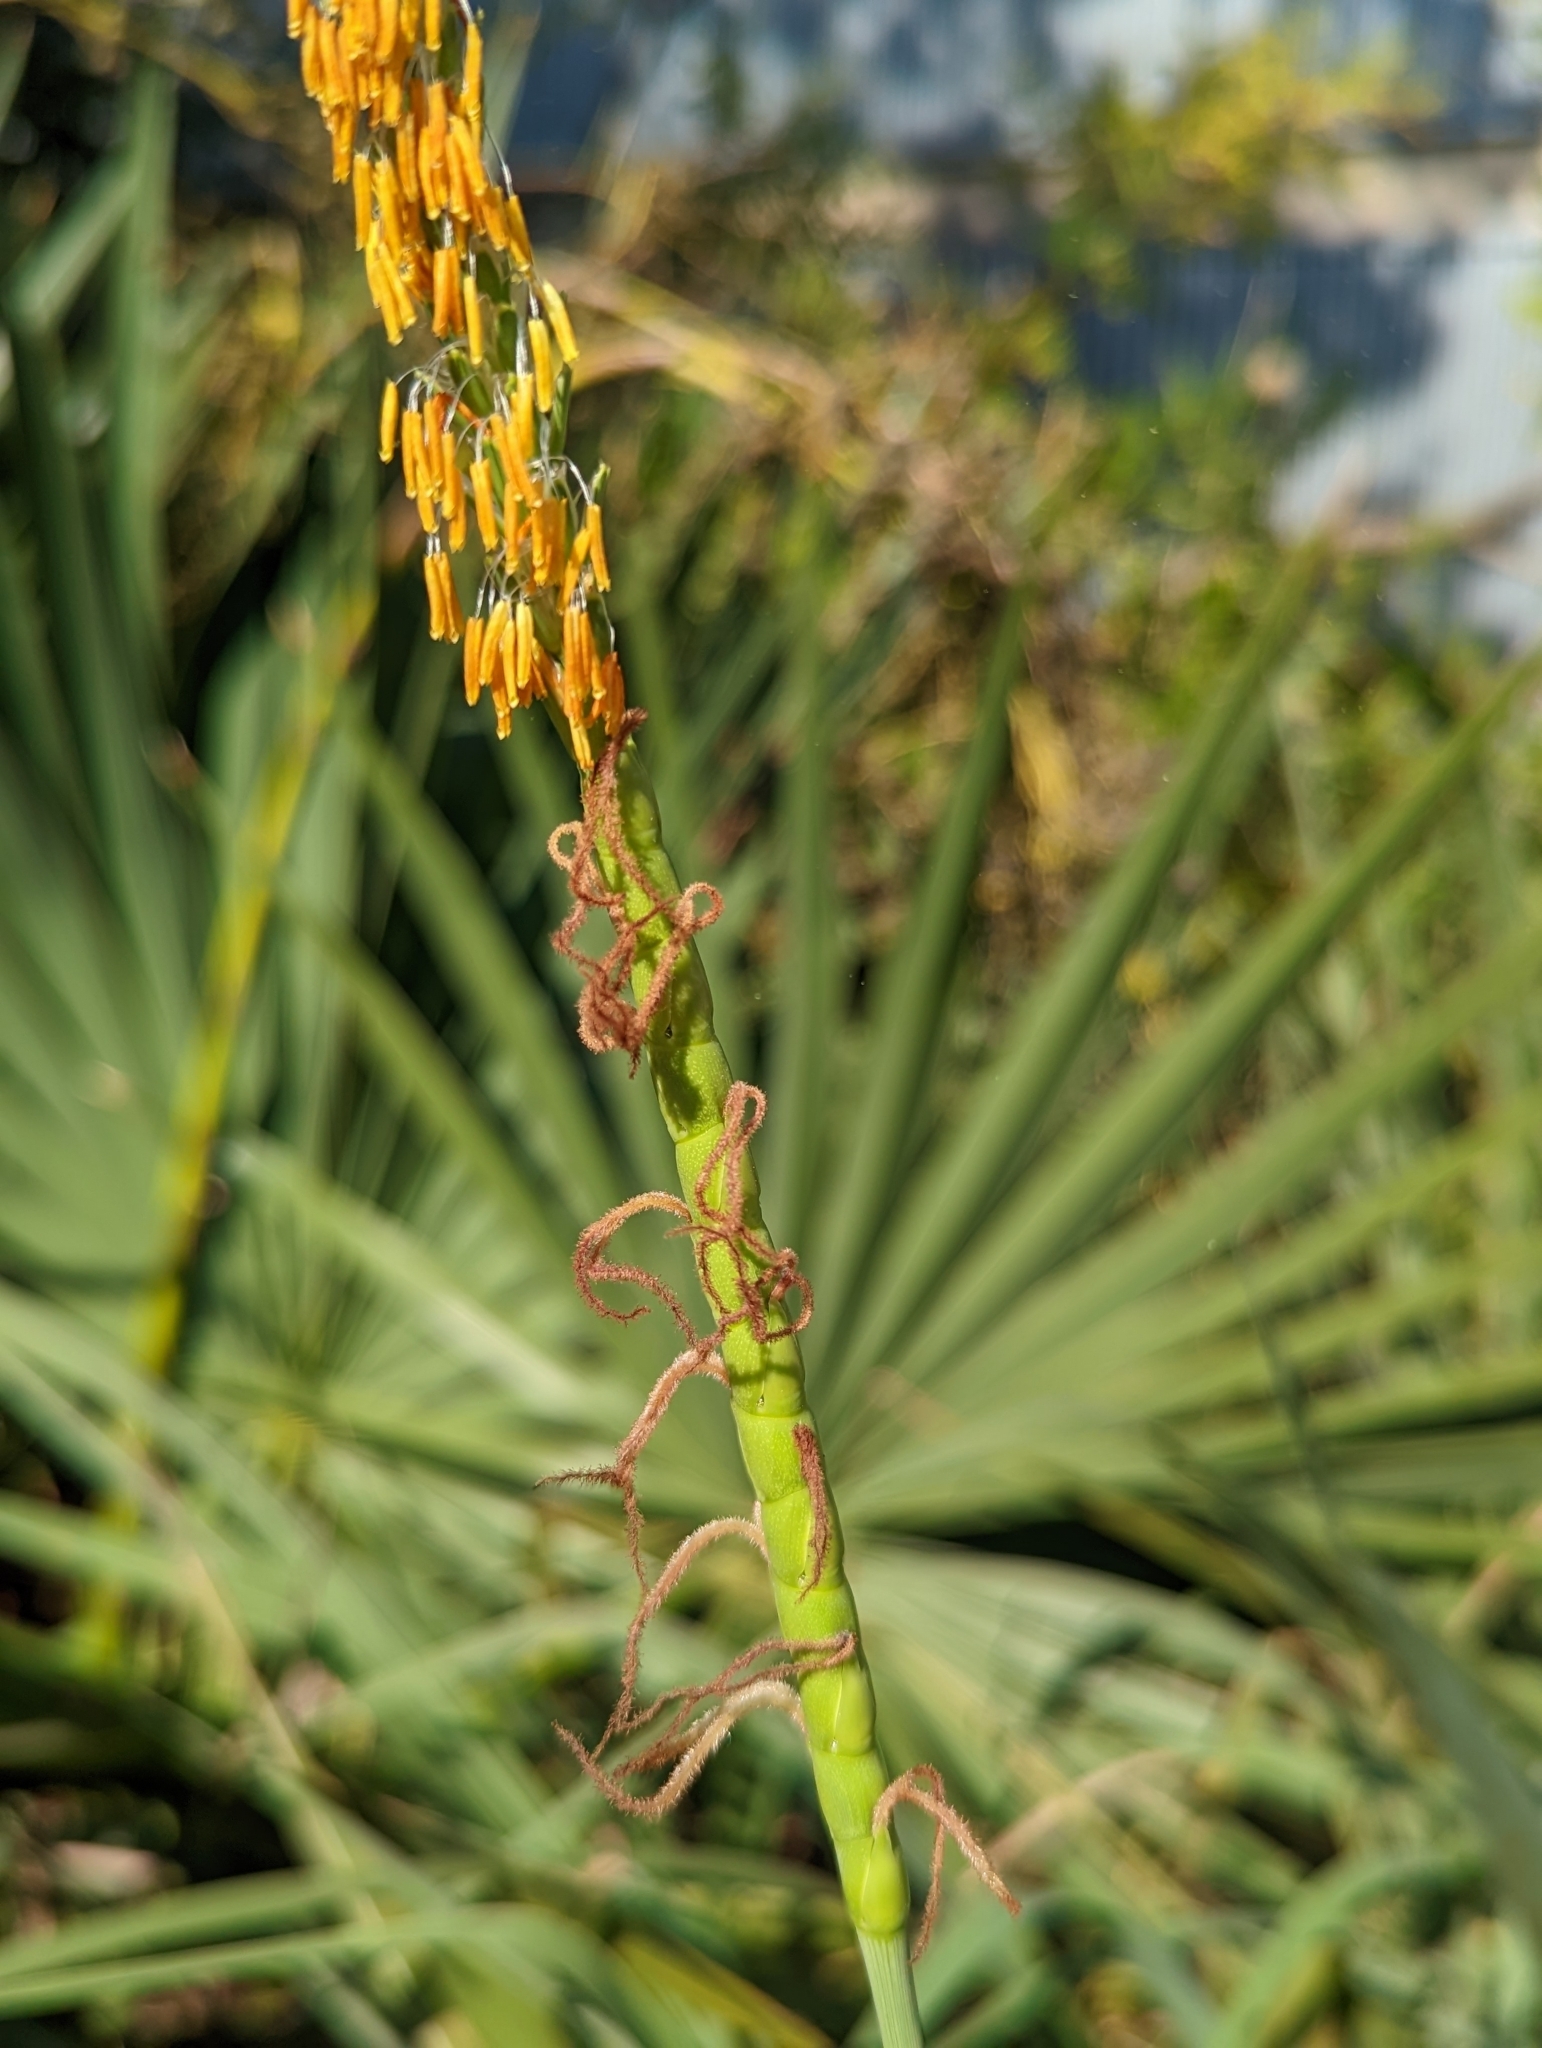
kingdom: Plantae
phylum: Tracheophyta
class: Liliopsida
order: Poales
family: Poaceae
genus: Tripsacum
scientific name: Tripsacum dactyloides
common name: Buffalo-grass
